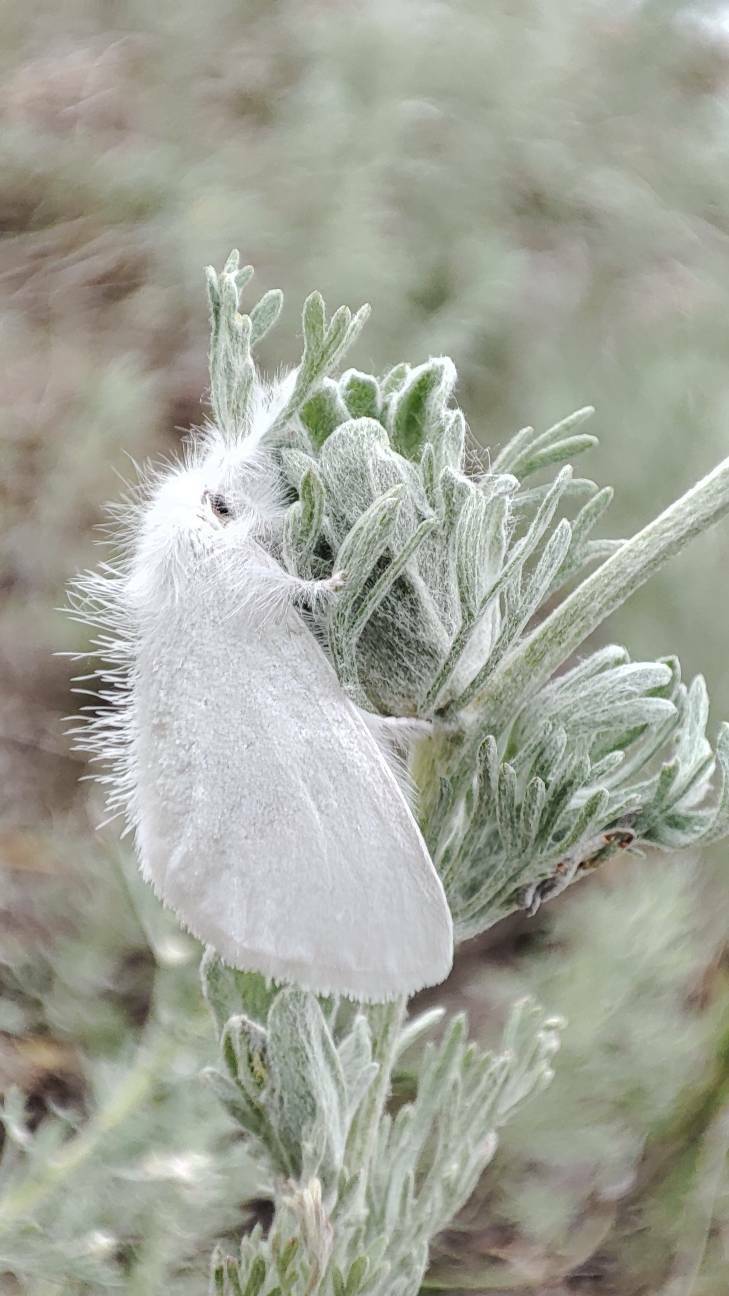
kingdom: Animalia
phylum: Arthropoda
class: Insecta
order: Lepidoptera
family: Erebidae
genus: Sphrageidus
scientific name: Sphrageidus similis
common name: Yellow-tail
